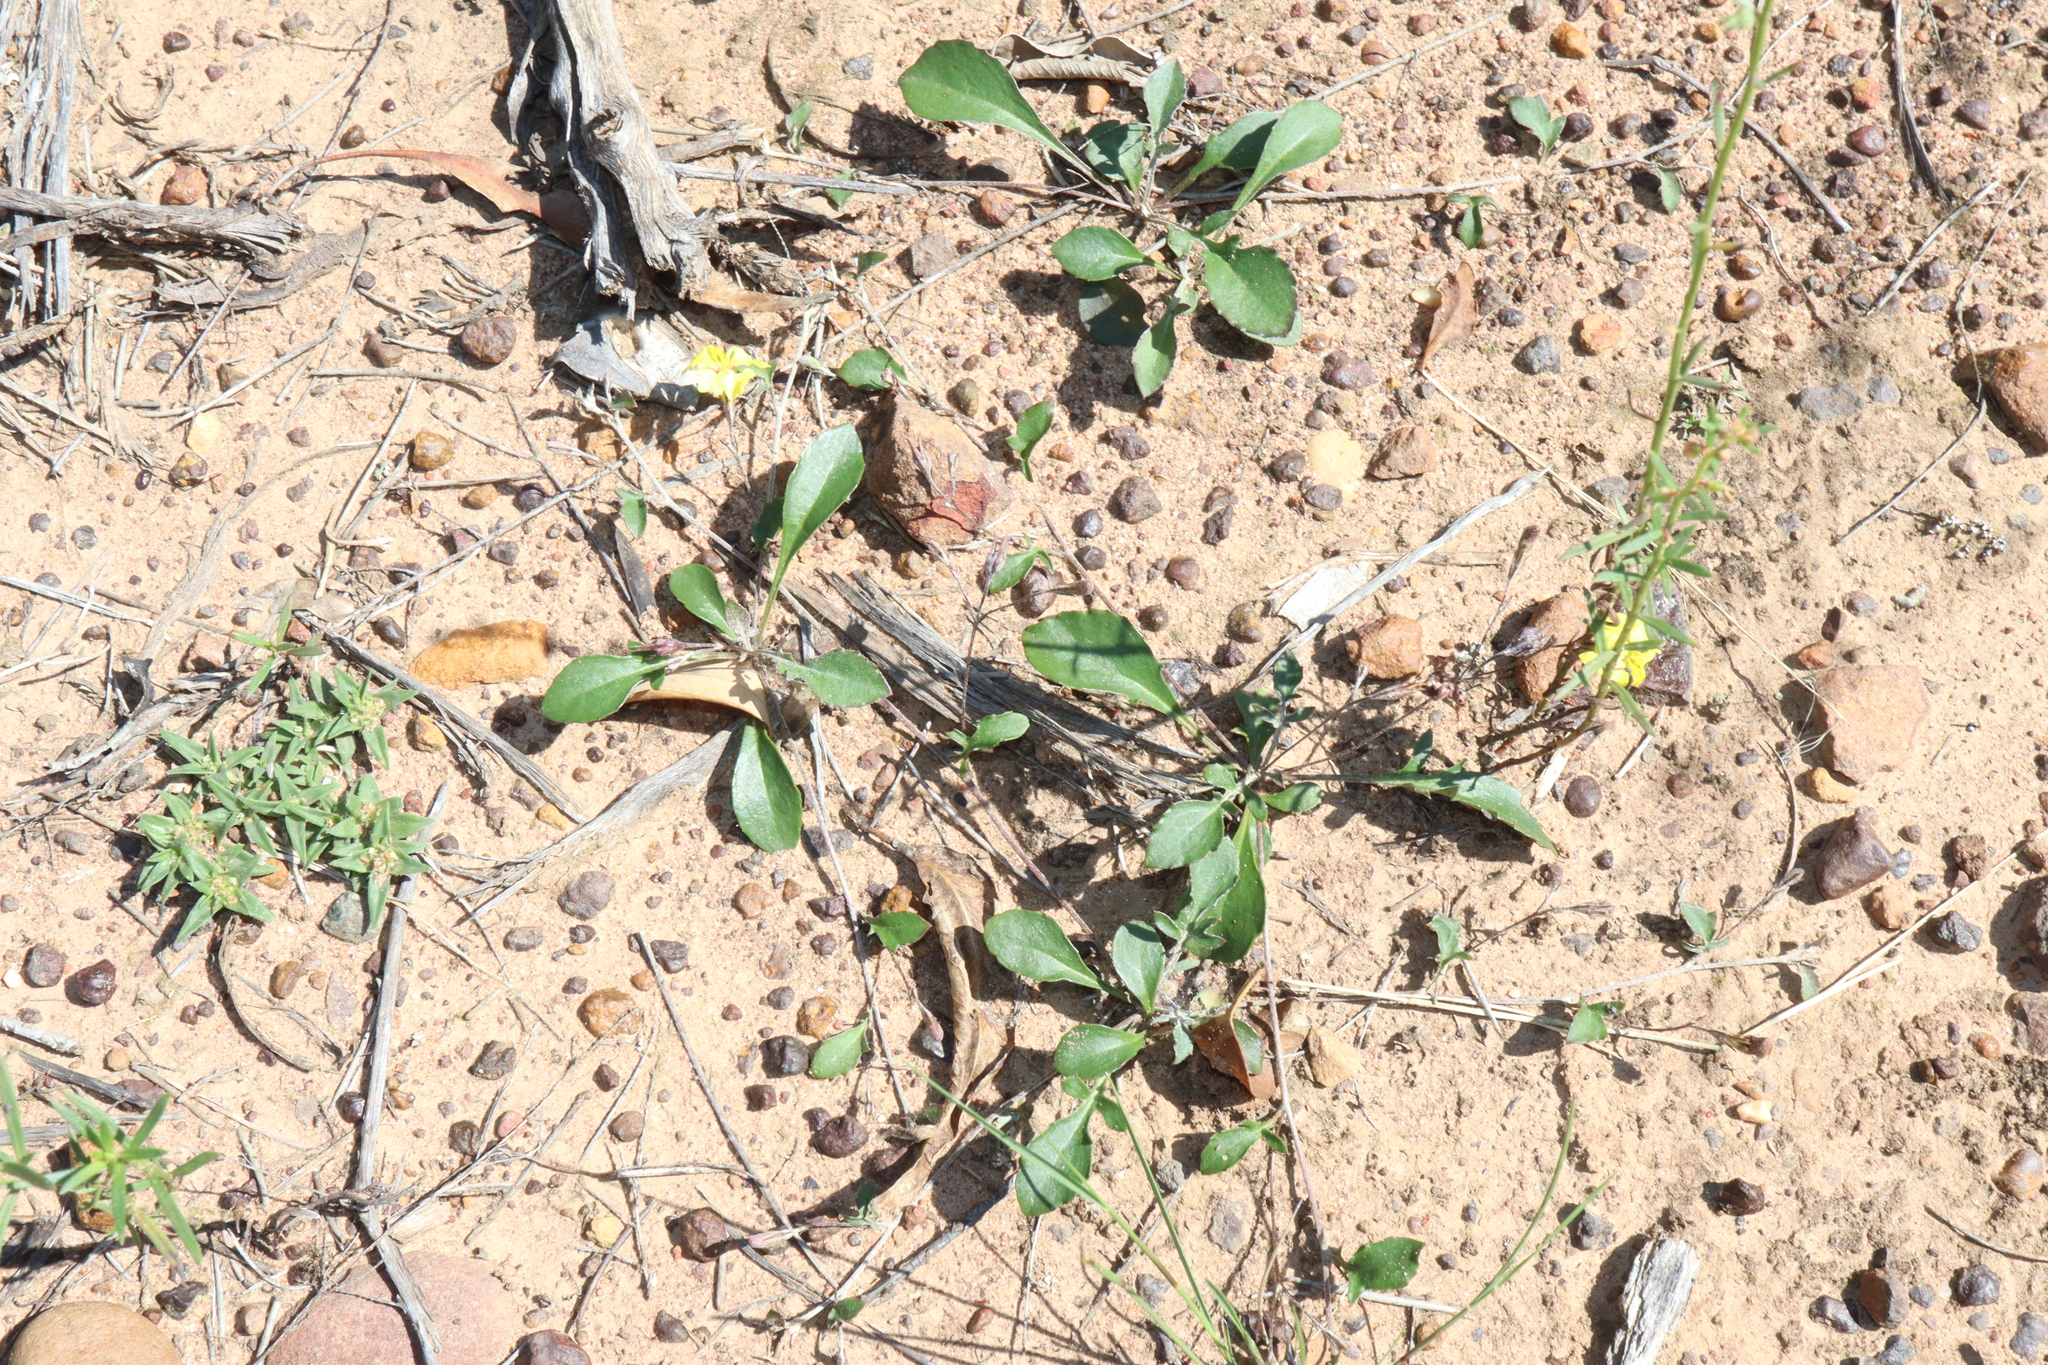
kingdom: Plantae
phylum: Tracheophyta
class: Magnoliopsida
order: Asterales
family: Goodeniaceae
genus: Goodenia
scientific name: Goodenia hederacea
